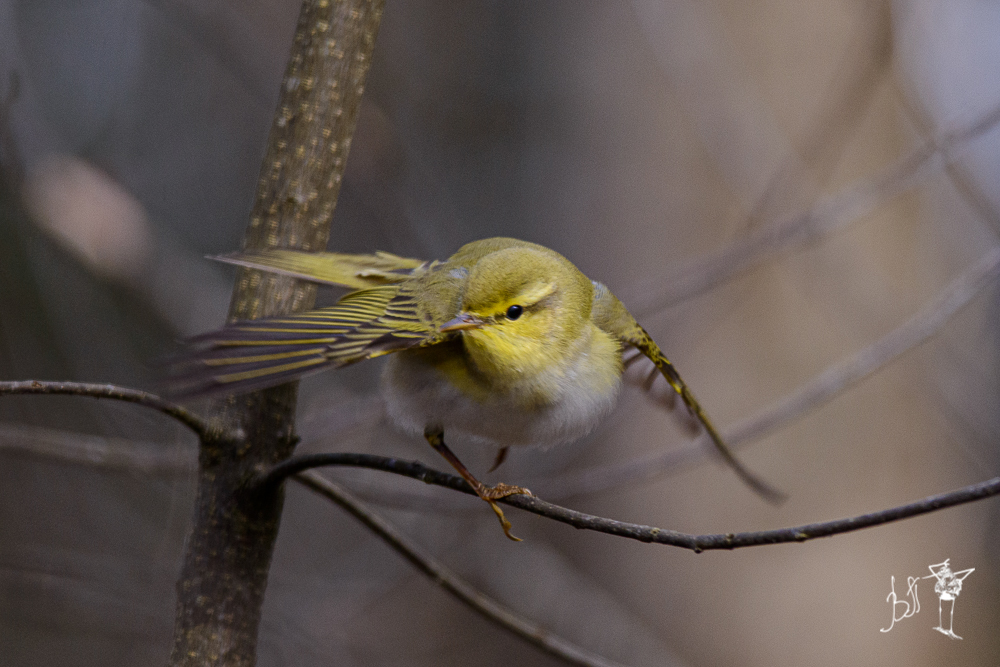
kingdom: Animalia
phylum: Chordata
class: Aves
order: Passeriformes
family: Phylloscopidae
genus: Phylloscopus
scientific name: Phylloscopus sibillatrix
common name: Wood warbler
